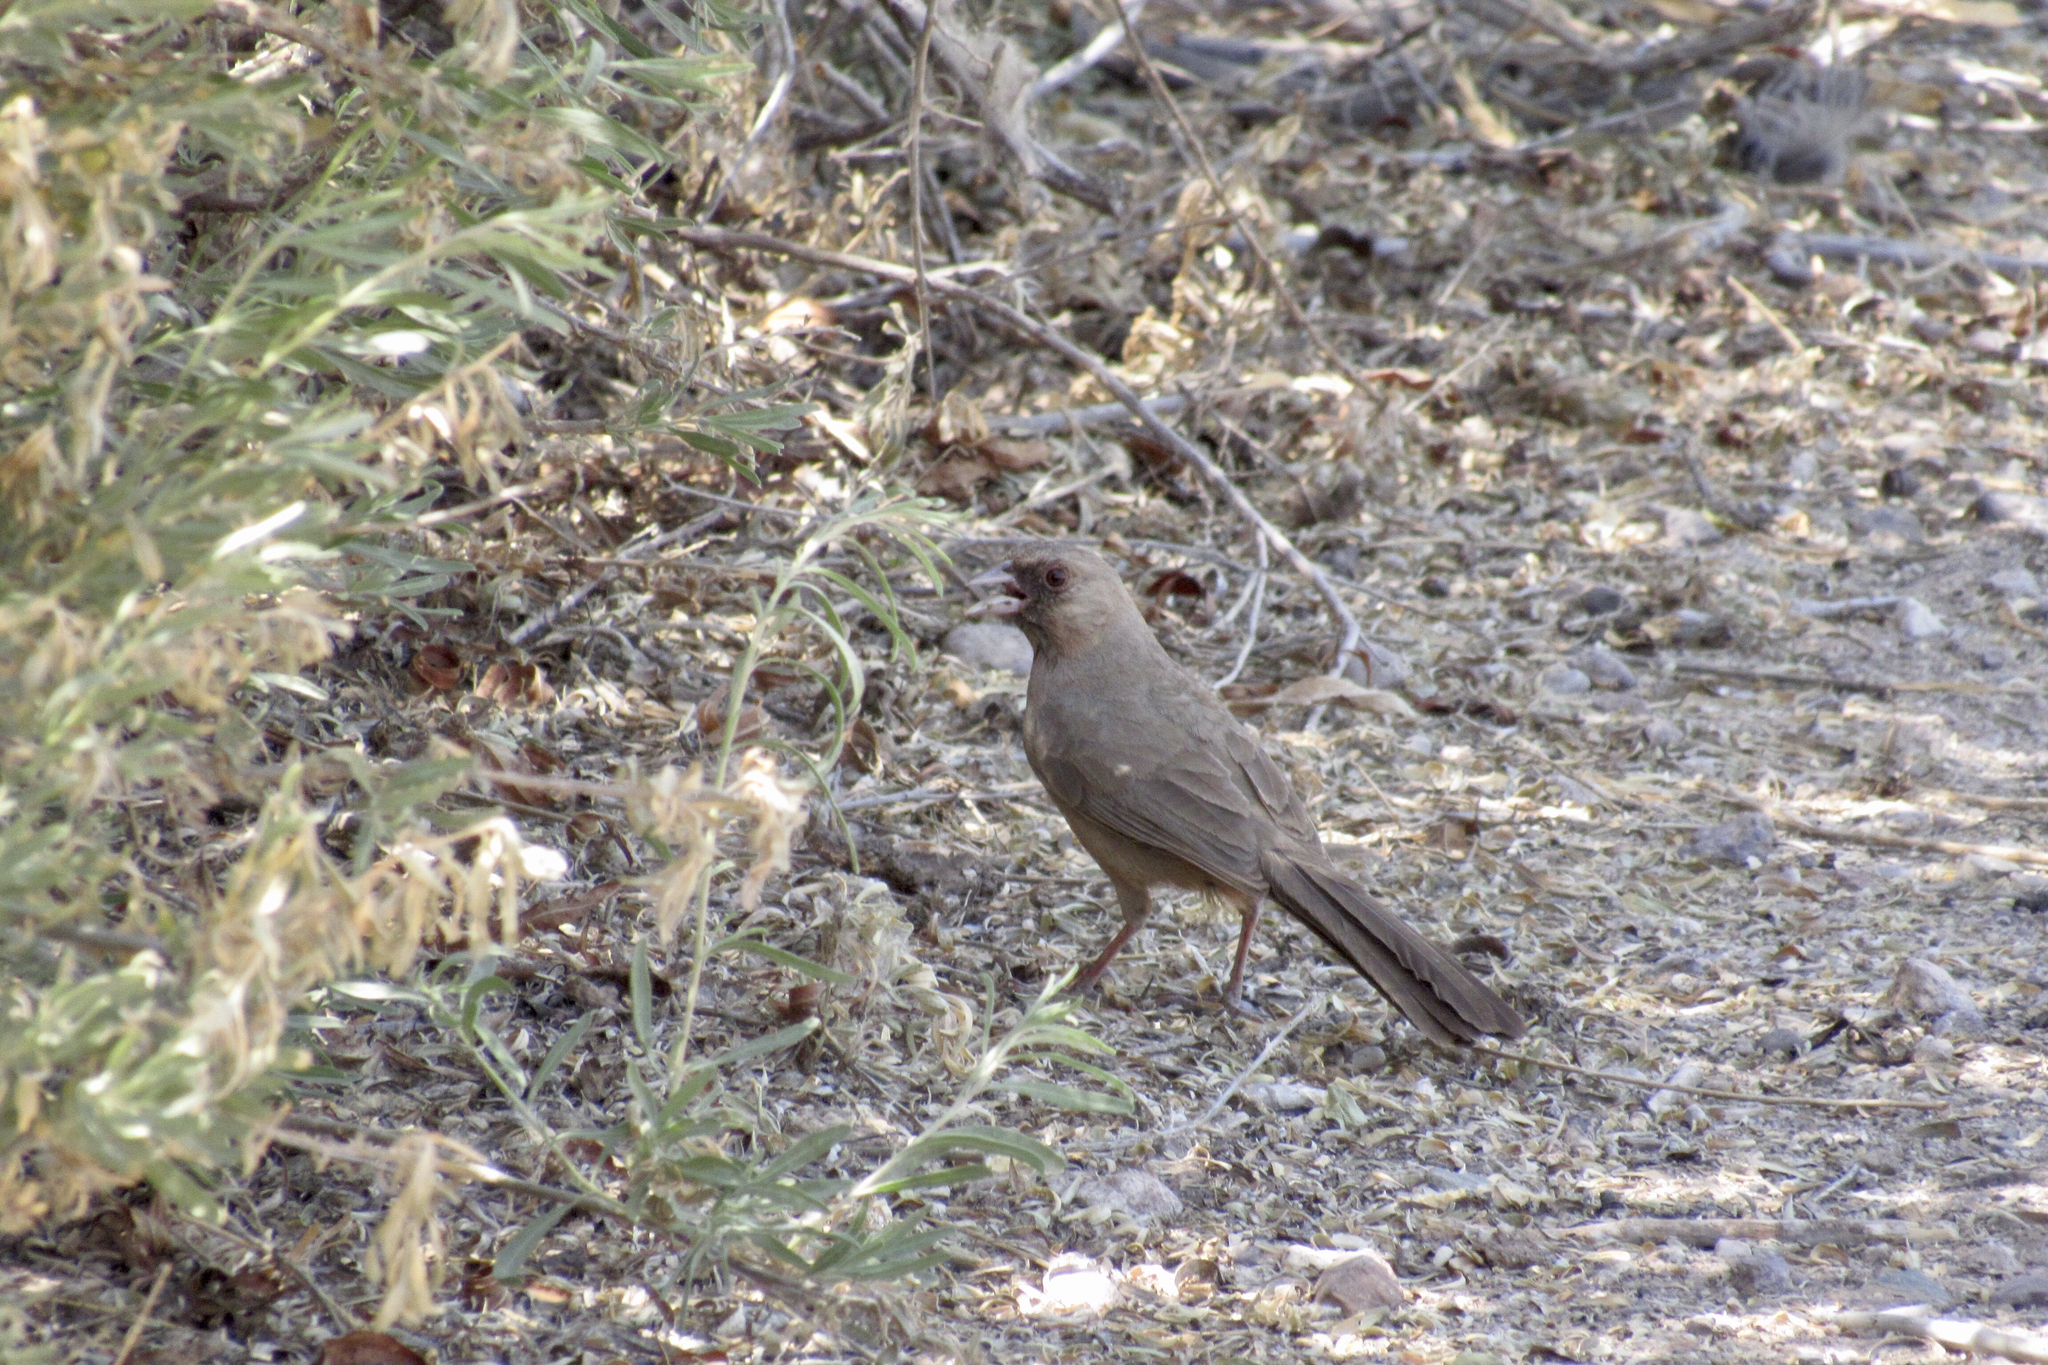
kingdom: Animalia
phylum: Chordata
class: Aves
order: Passeriformes
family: Passerellidae
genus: Melozone
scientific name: Melozone aberti
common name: Abert's towhee
